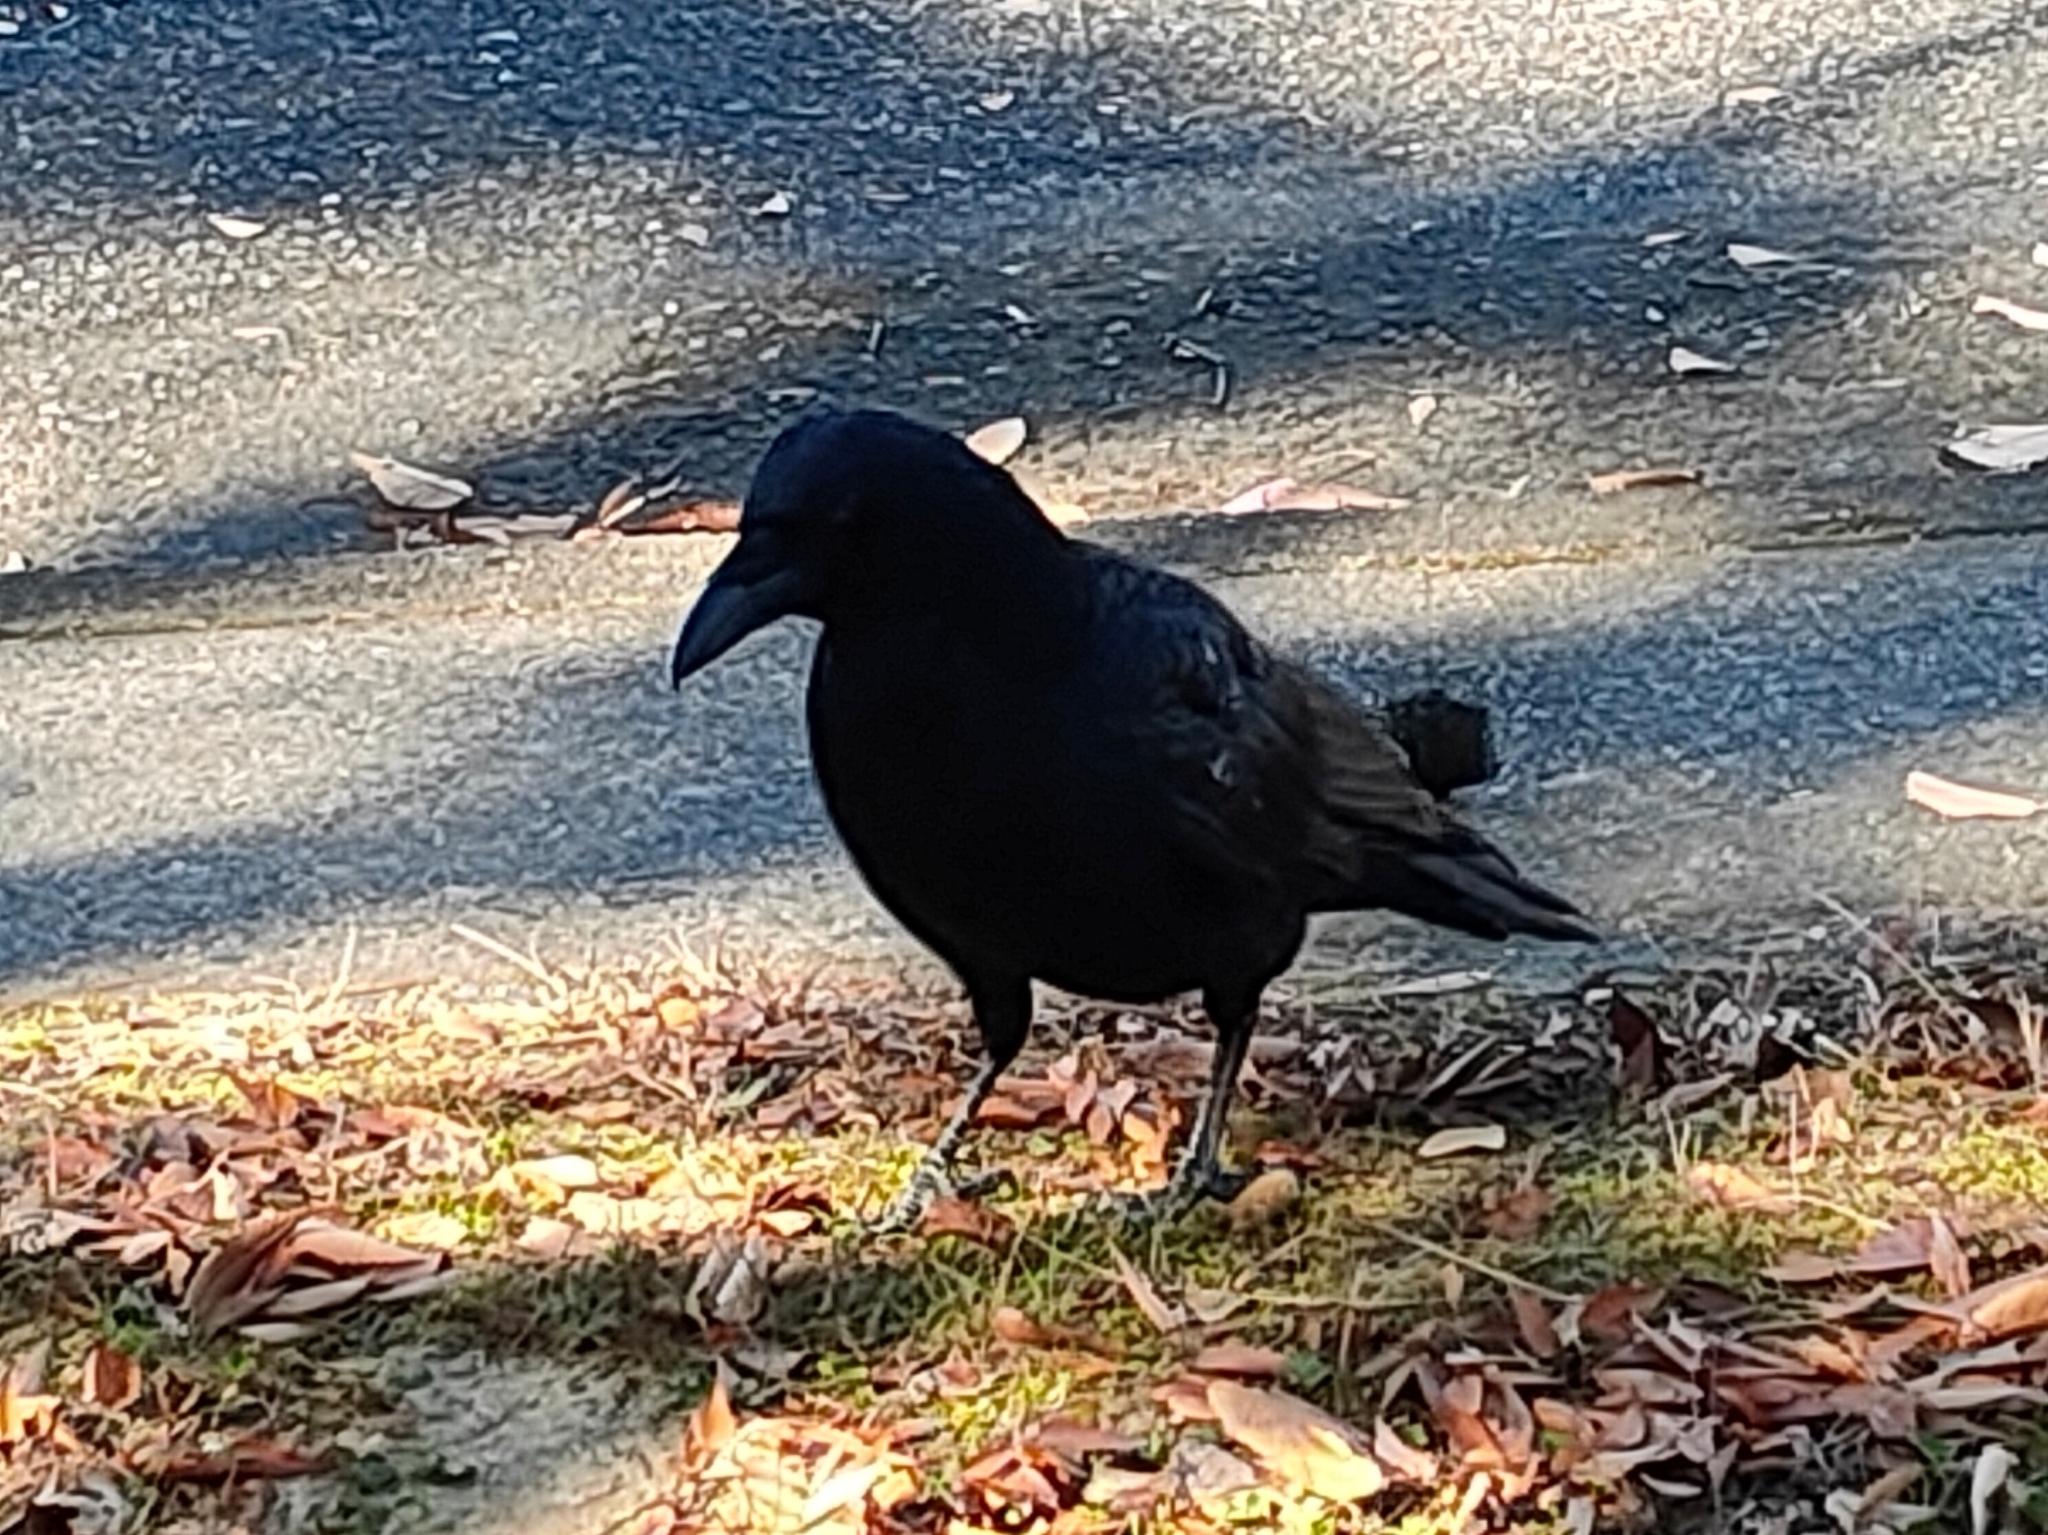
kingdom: Animalia
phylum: Chordata
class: Aves
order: Passeriformes
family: Corvidae
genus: Corvus
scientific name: Corvus corone
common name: Carrion crow
